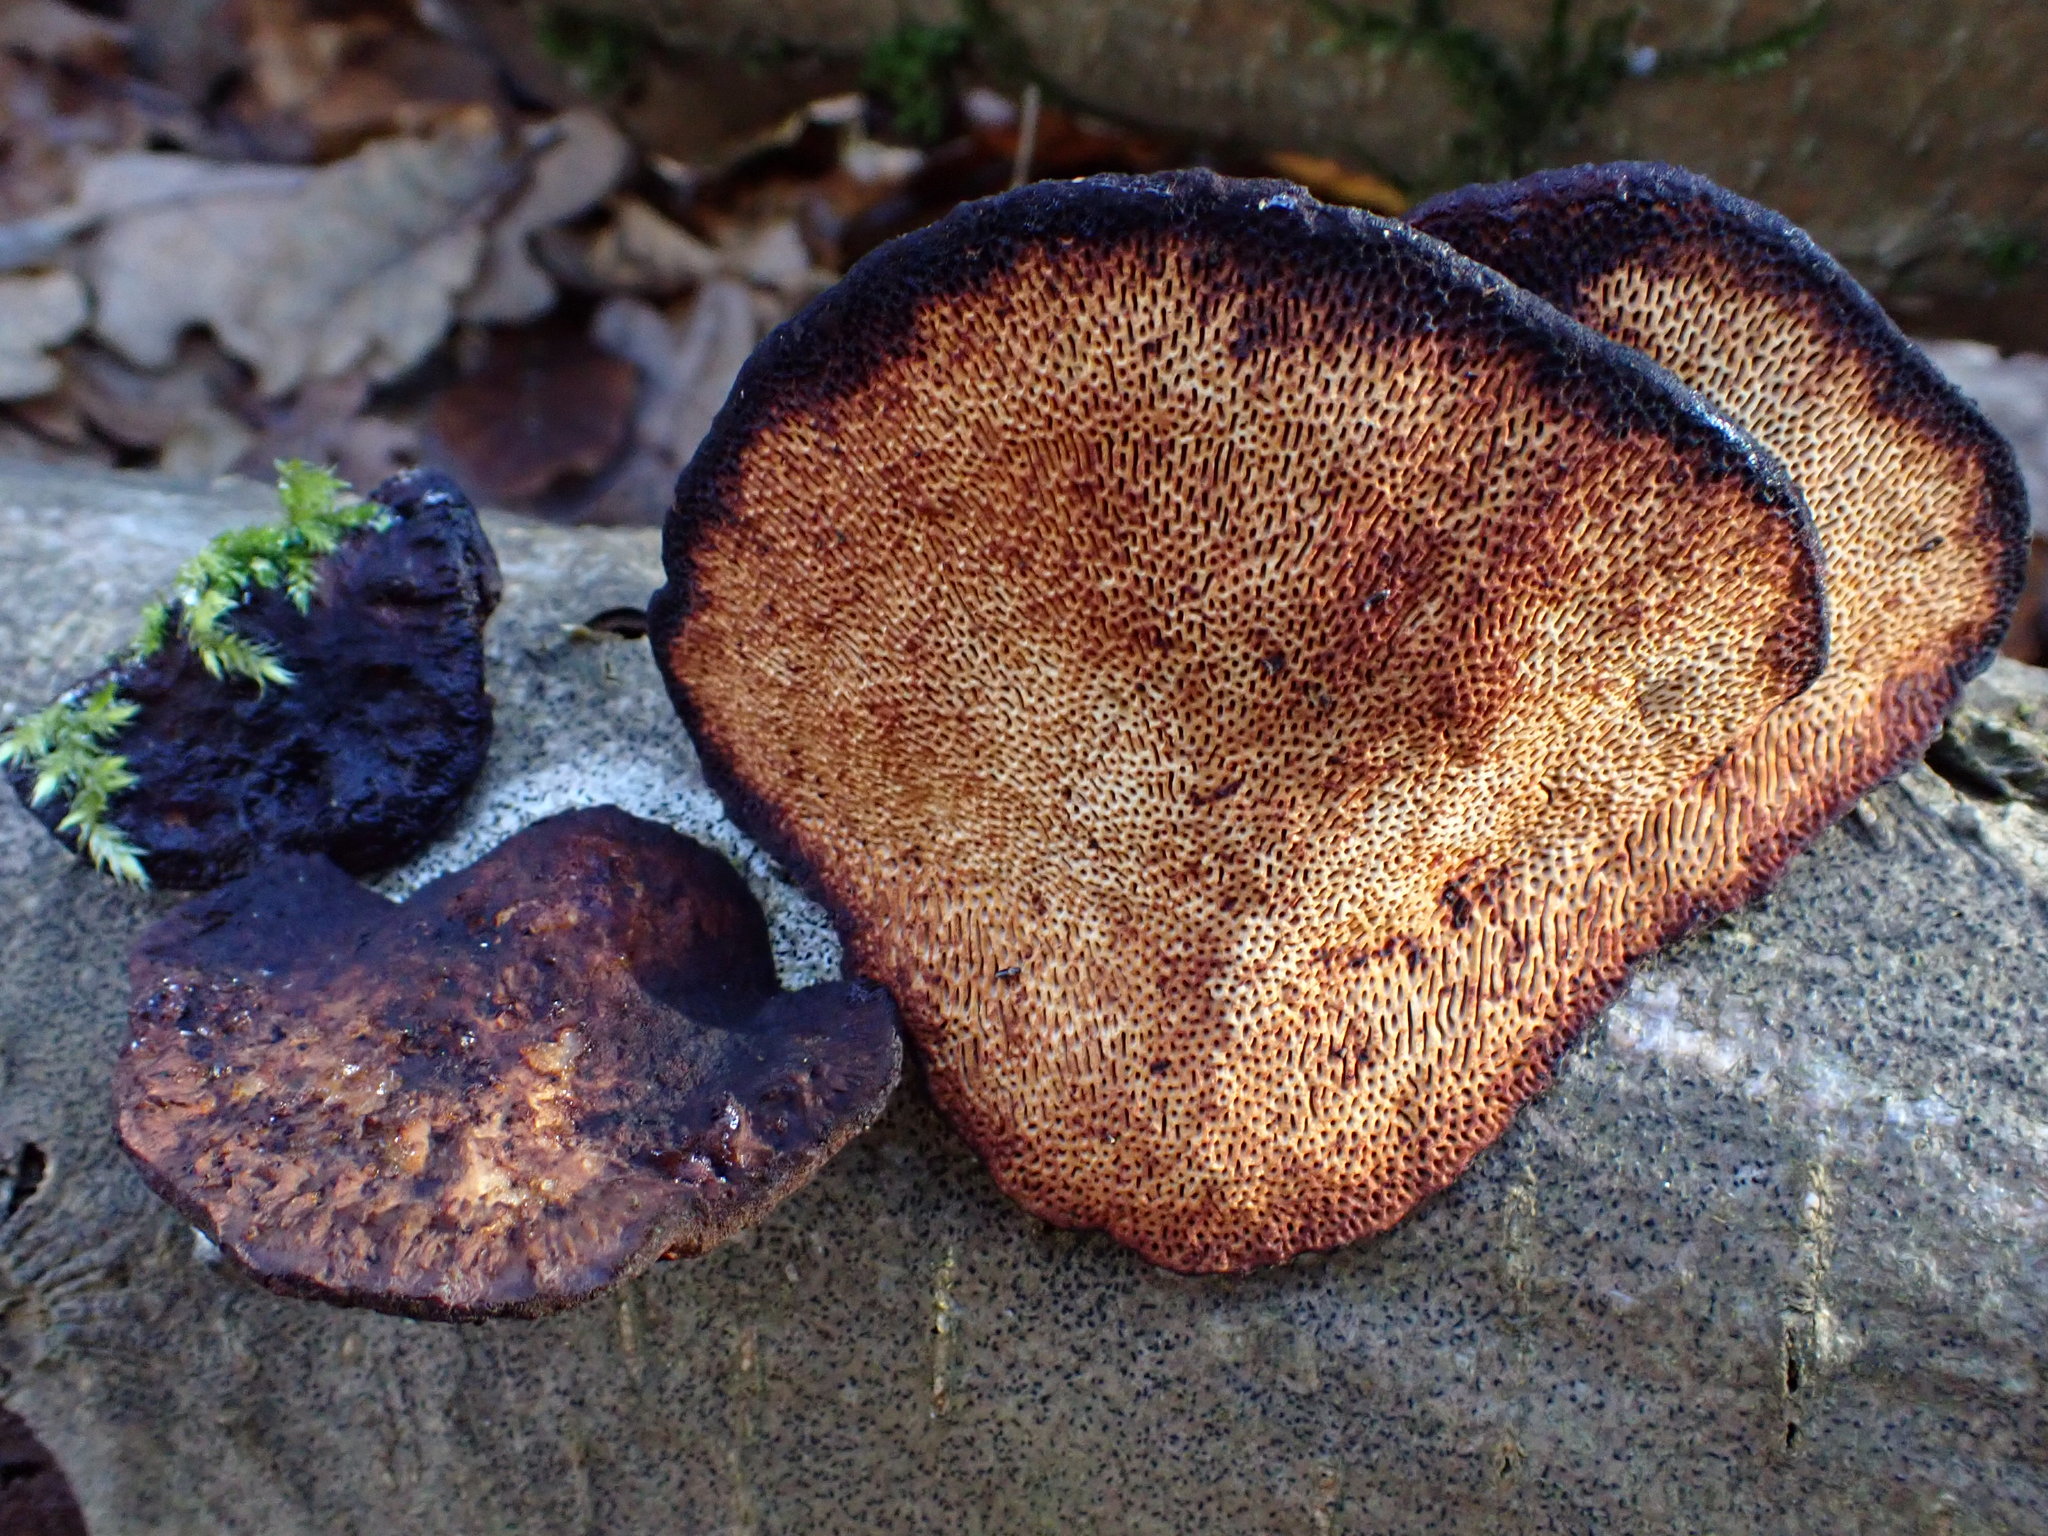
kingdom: Fungi
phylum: Basidiomycota
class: Agaricomycetes
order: Polyporales
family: Polyporaceae
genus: Daedaleopsis
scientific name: Daedaleopsis confragosa
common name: Blushing bracket
